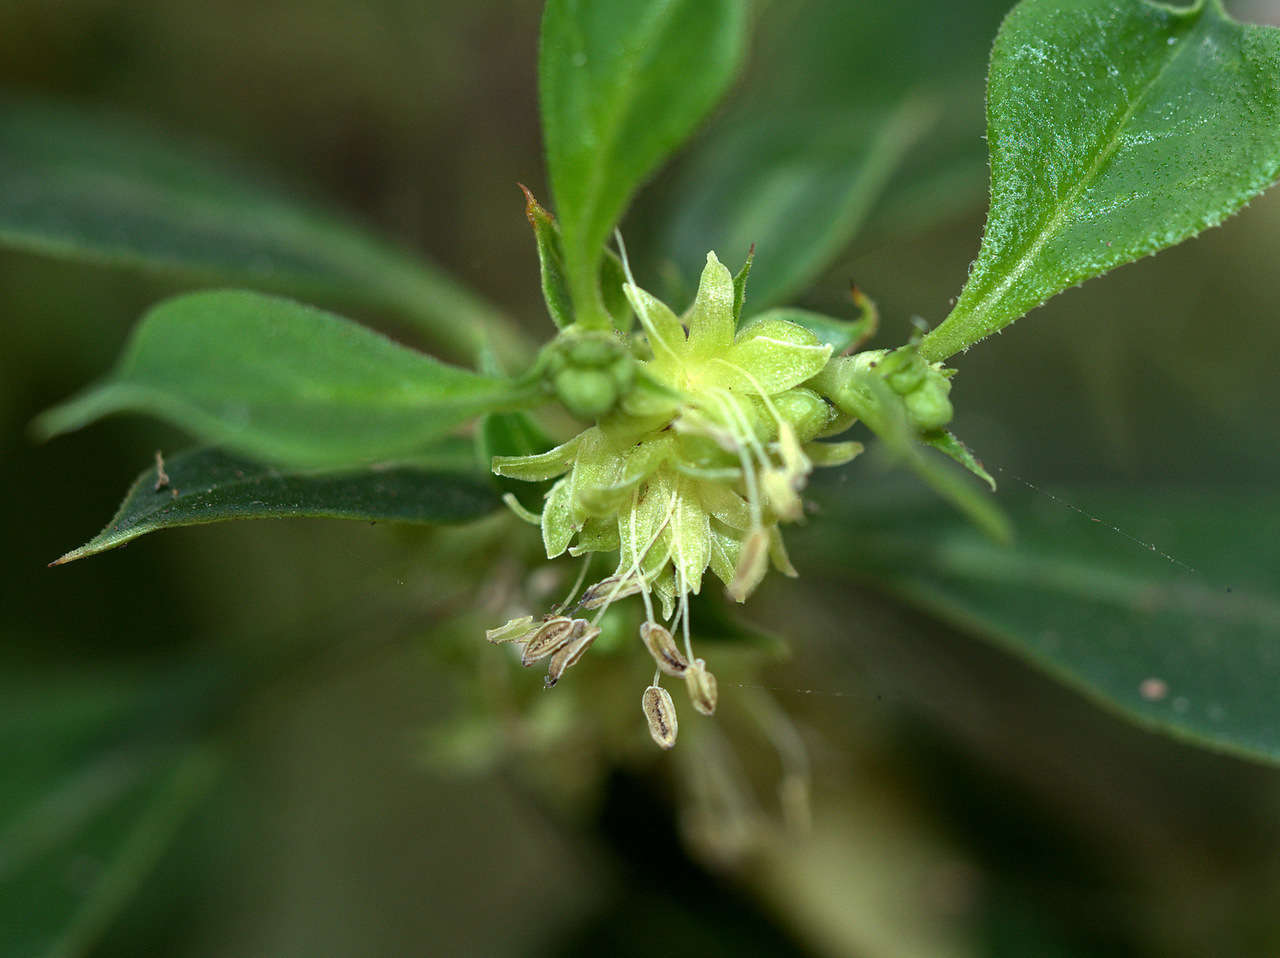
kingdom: Plantae
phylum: Tracheophyta
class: Magnoliopsida
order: Gentianales
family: Rubiaceae
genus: Coprosma
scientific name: Coprosma hirtella
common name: Rough coprosma
